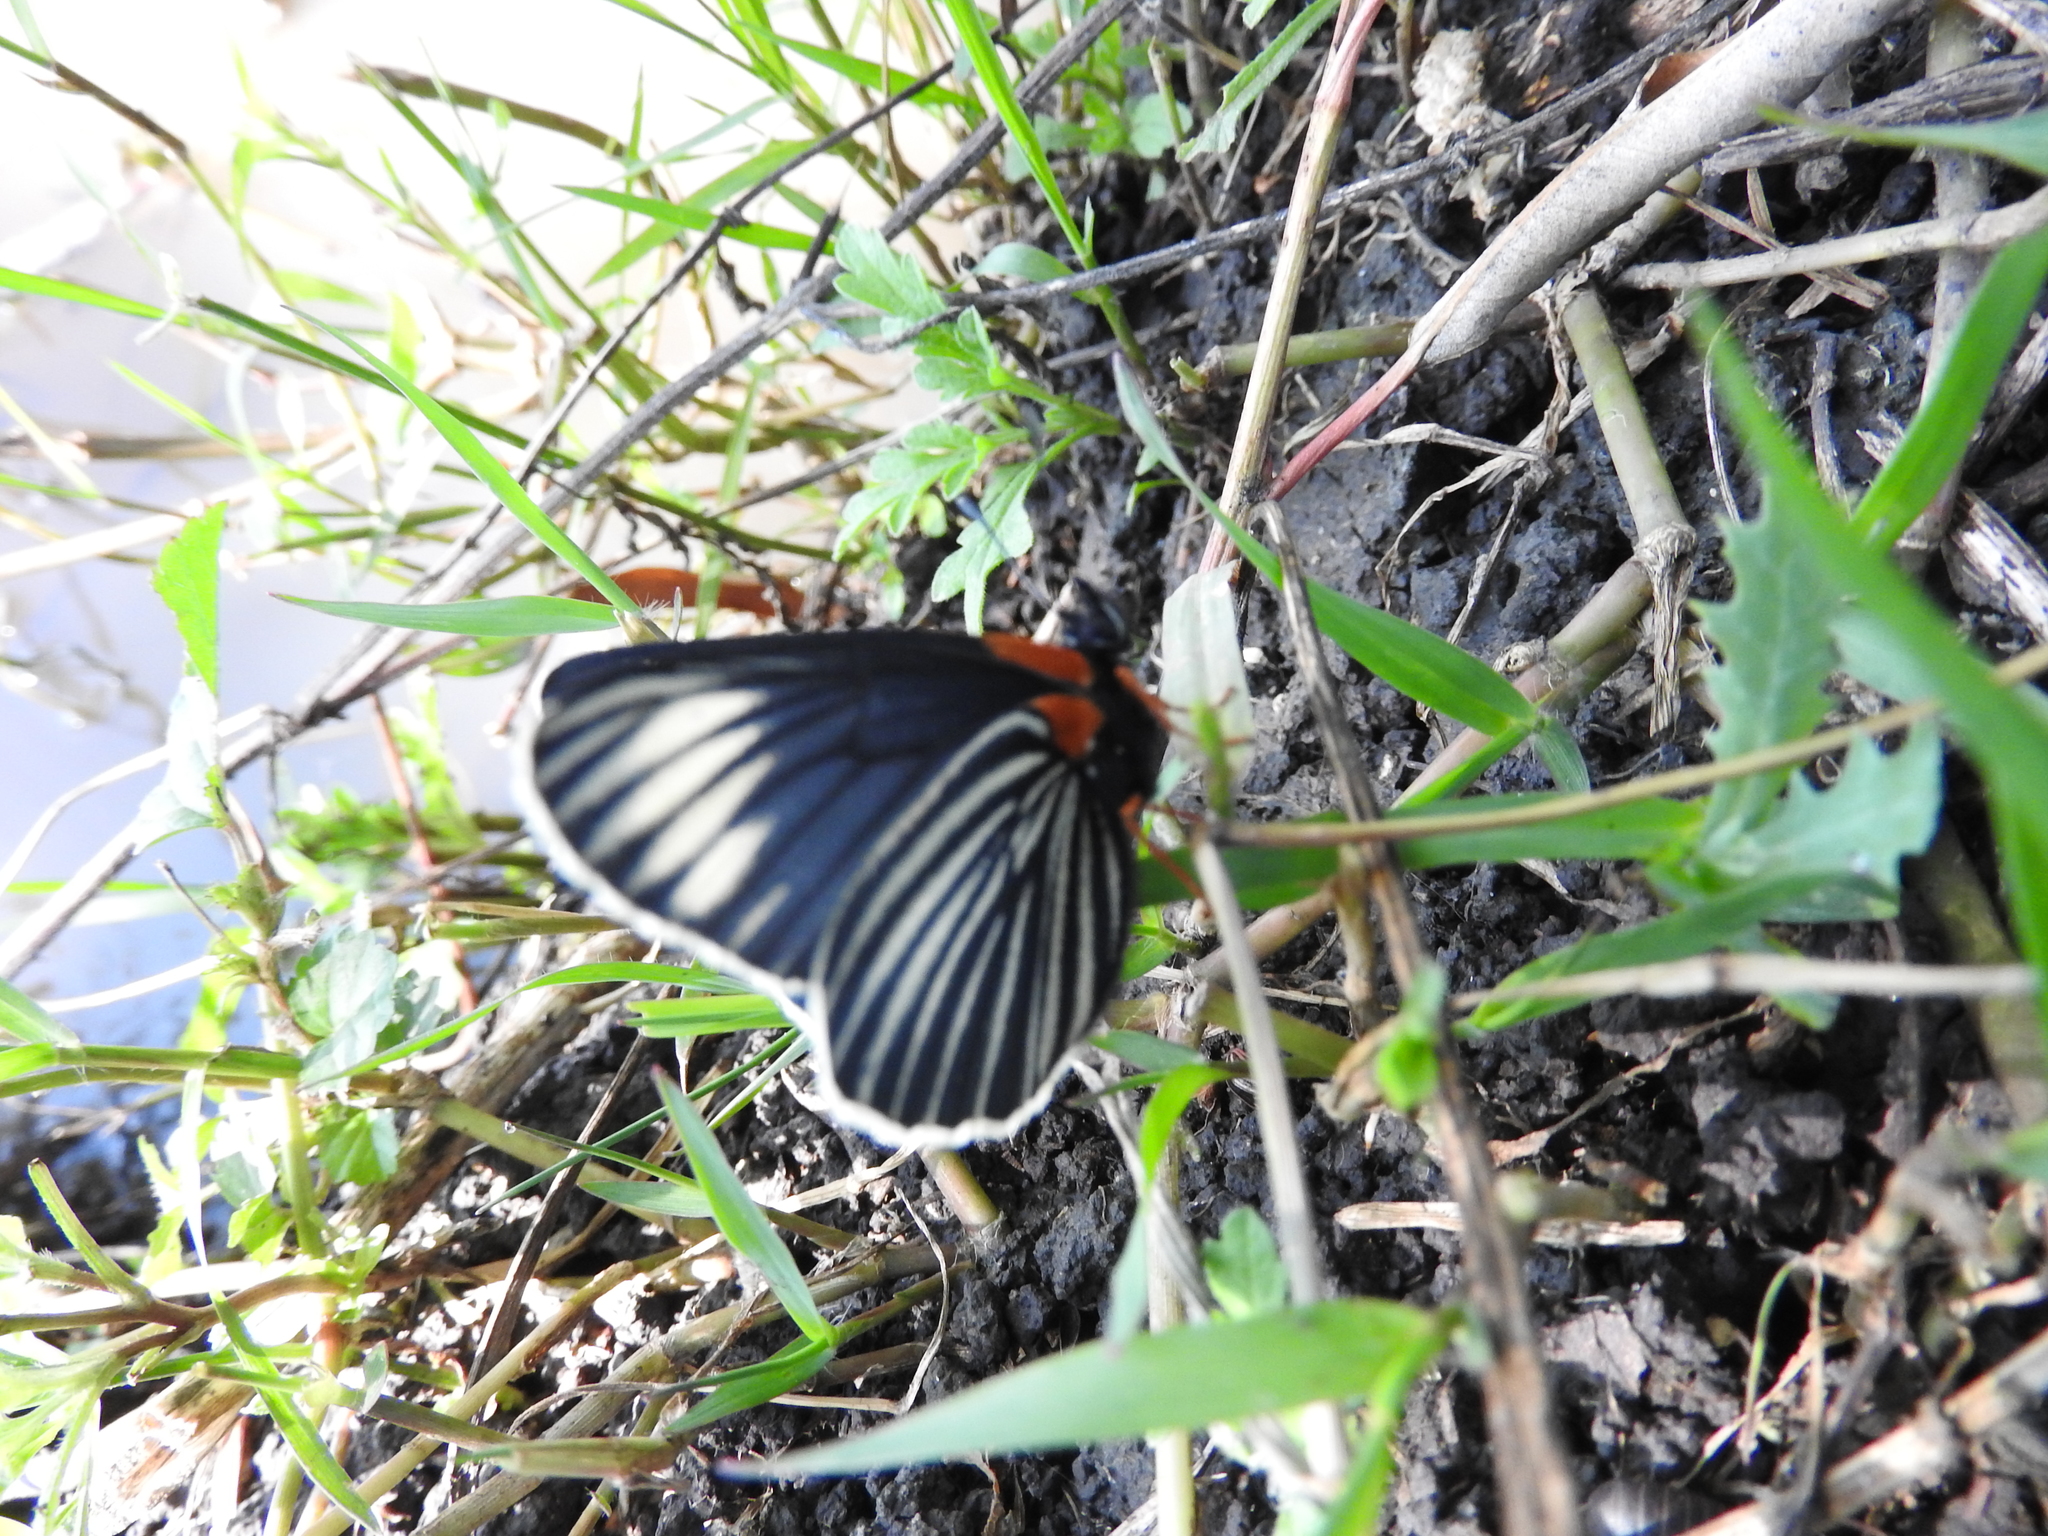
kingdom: Animalia
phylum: Arthropoda
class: Insecta
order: Lepidoptera
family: Nymphalidae
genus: Chlosyne
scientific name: Chlosyne ehrenbergii
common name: White-rayed patch
